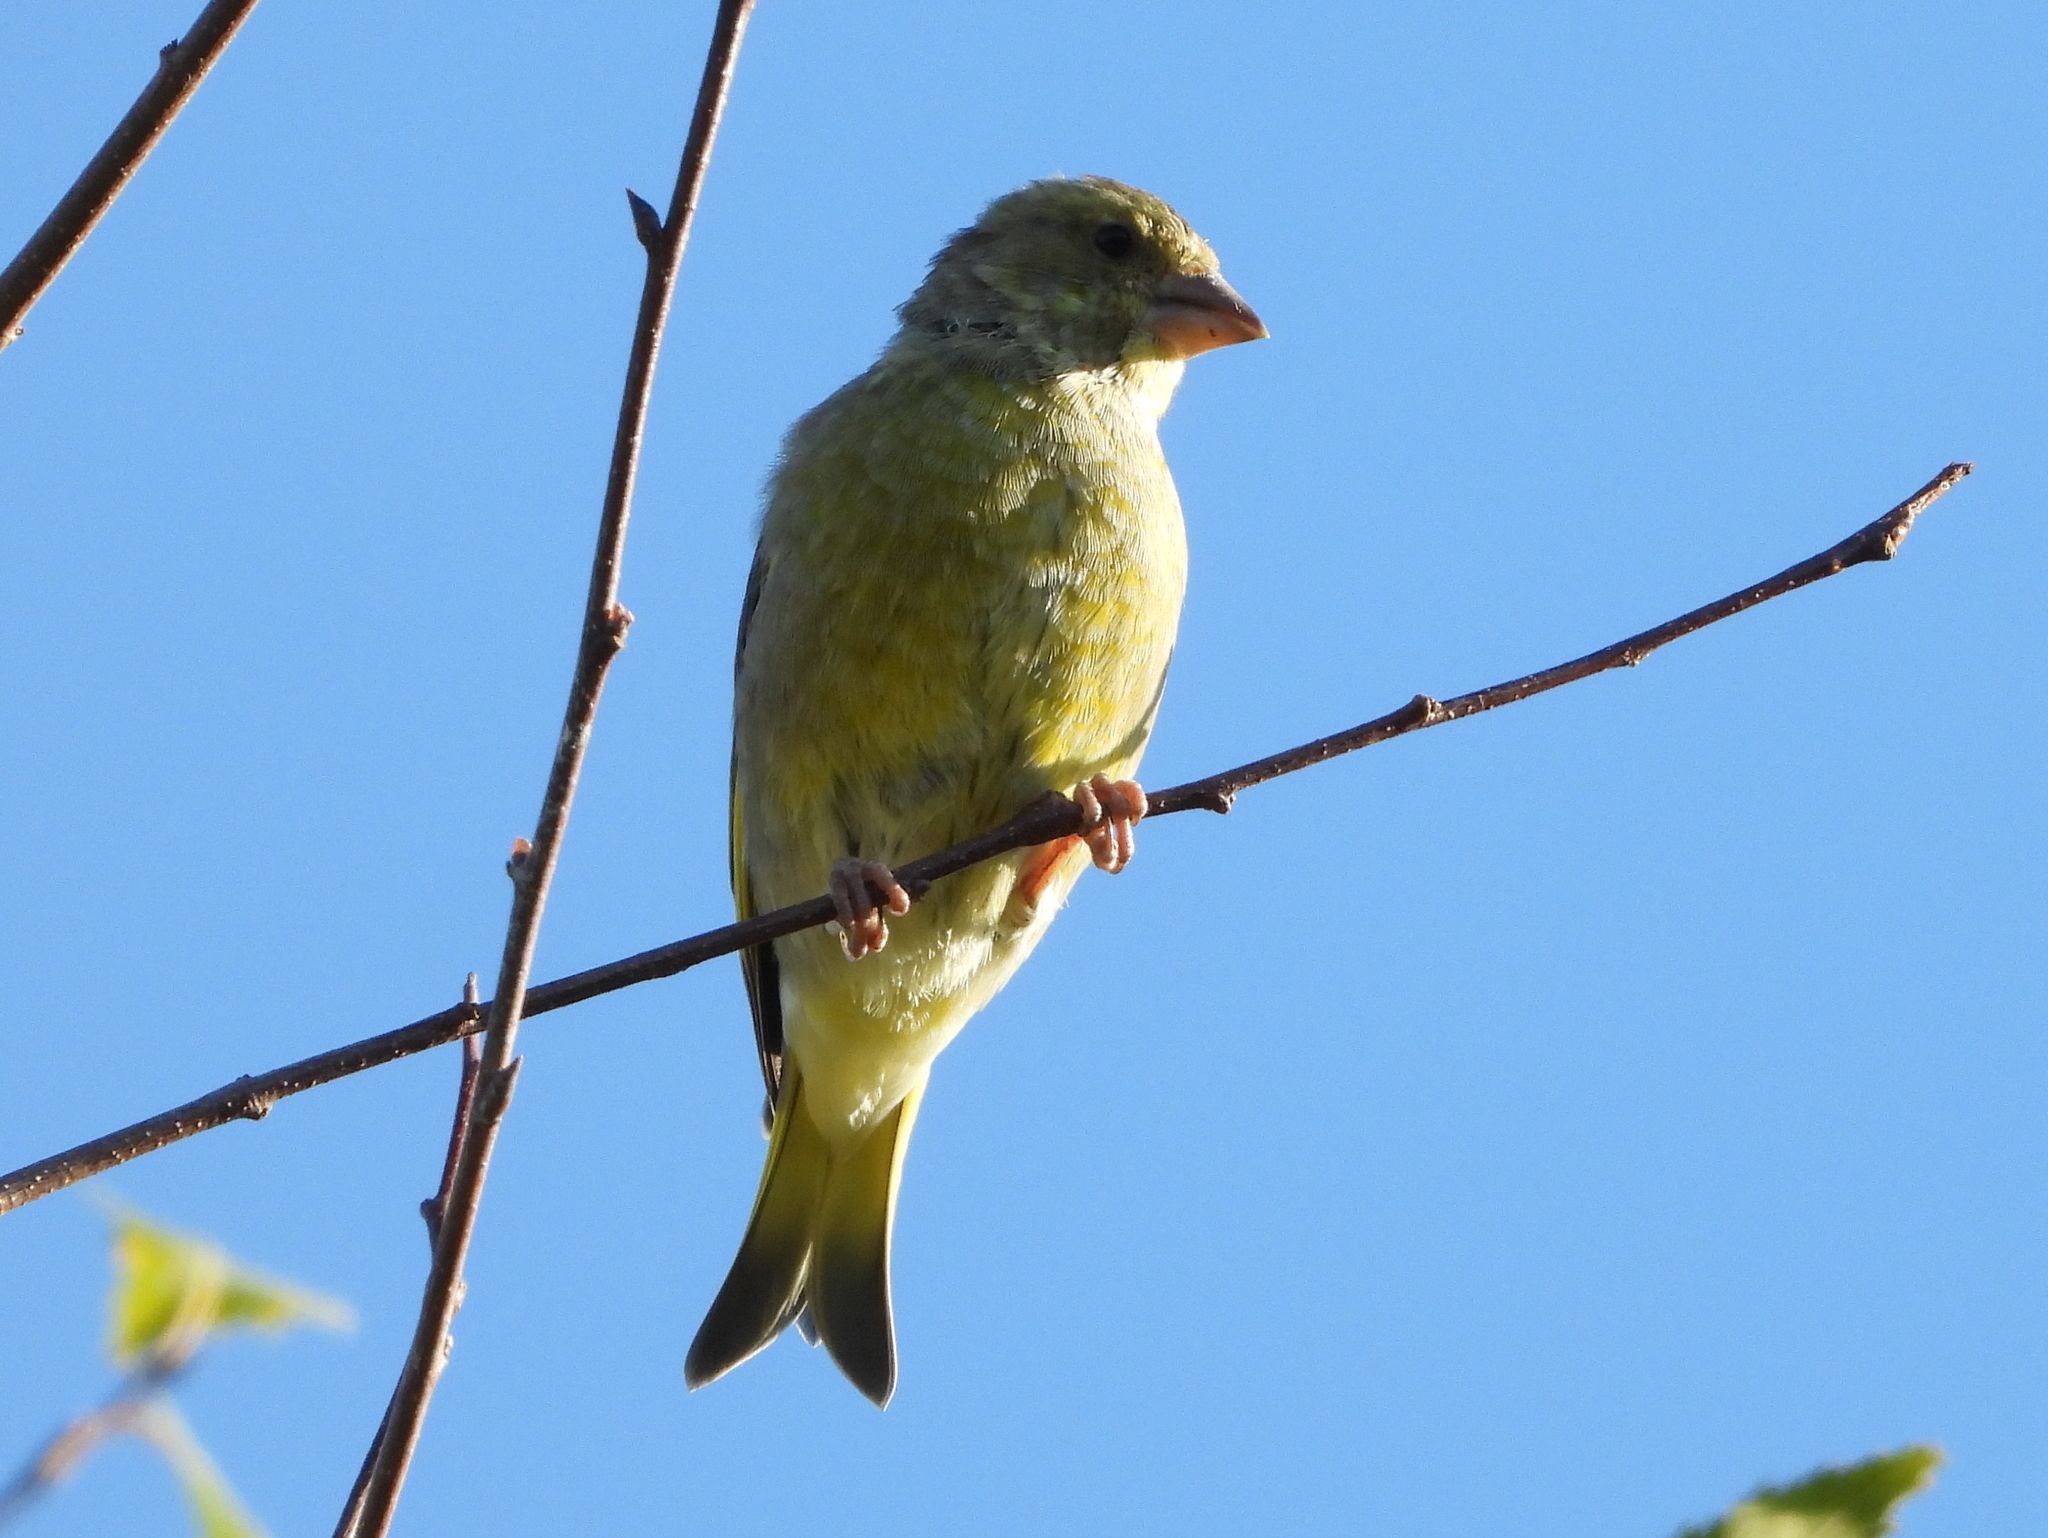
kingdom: Plantae
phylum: Tracheophyta
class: Liliopsida
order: Poales
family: Poaceae
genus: Chloris
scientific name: Chloris chloris
